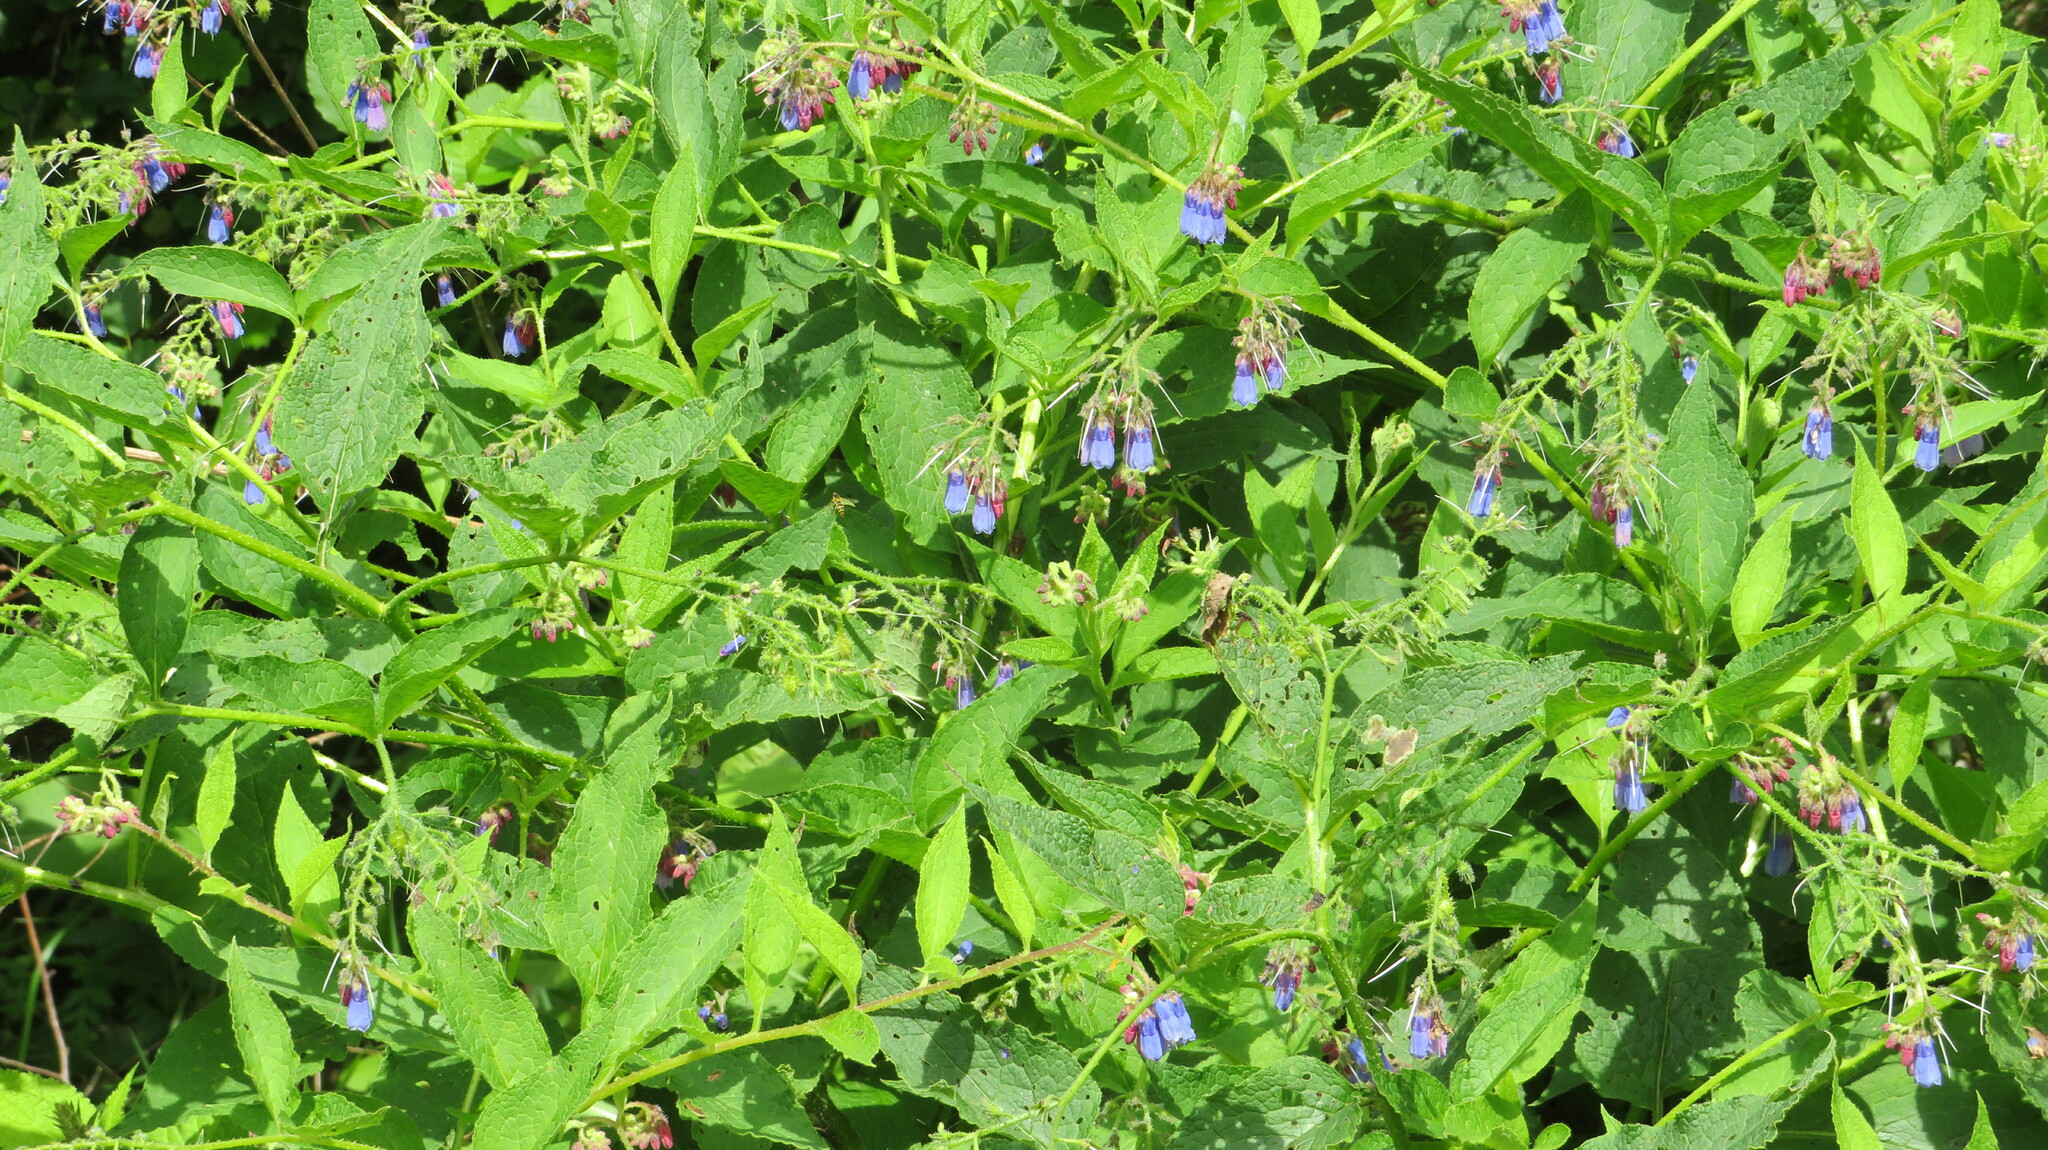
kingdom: Plantae
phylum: Tracheophyta
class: Magnoliopsida
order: Boraginales
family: Boraginaceae
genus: Symphytum
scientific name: Symphytum asperum
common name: Prickly comfrey
